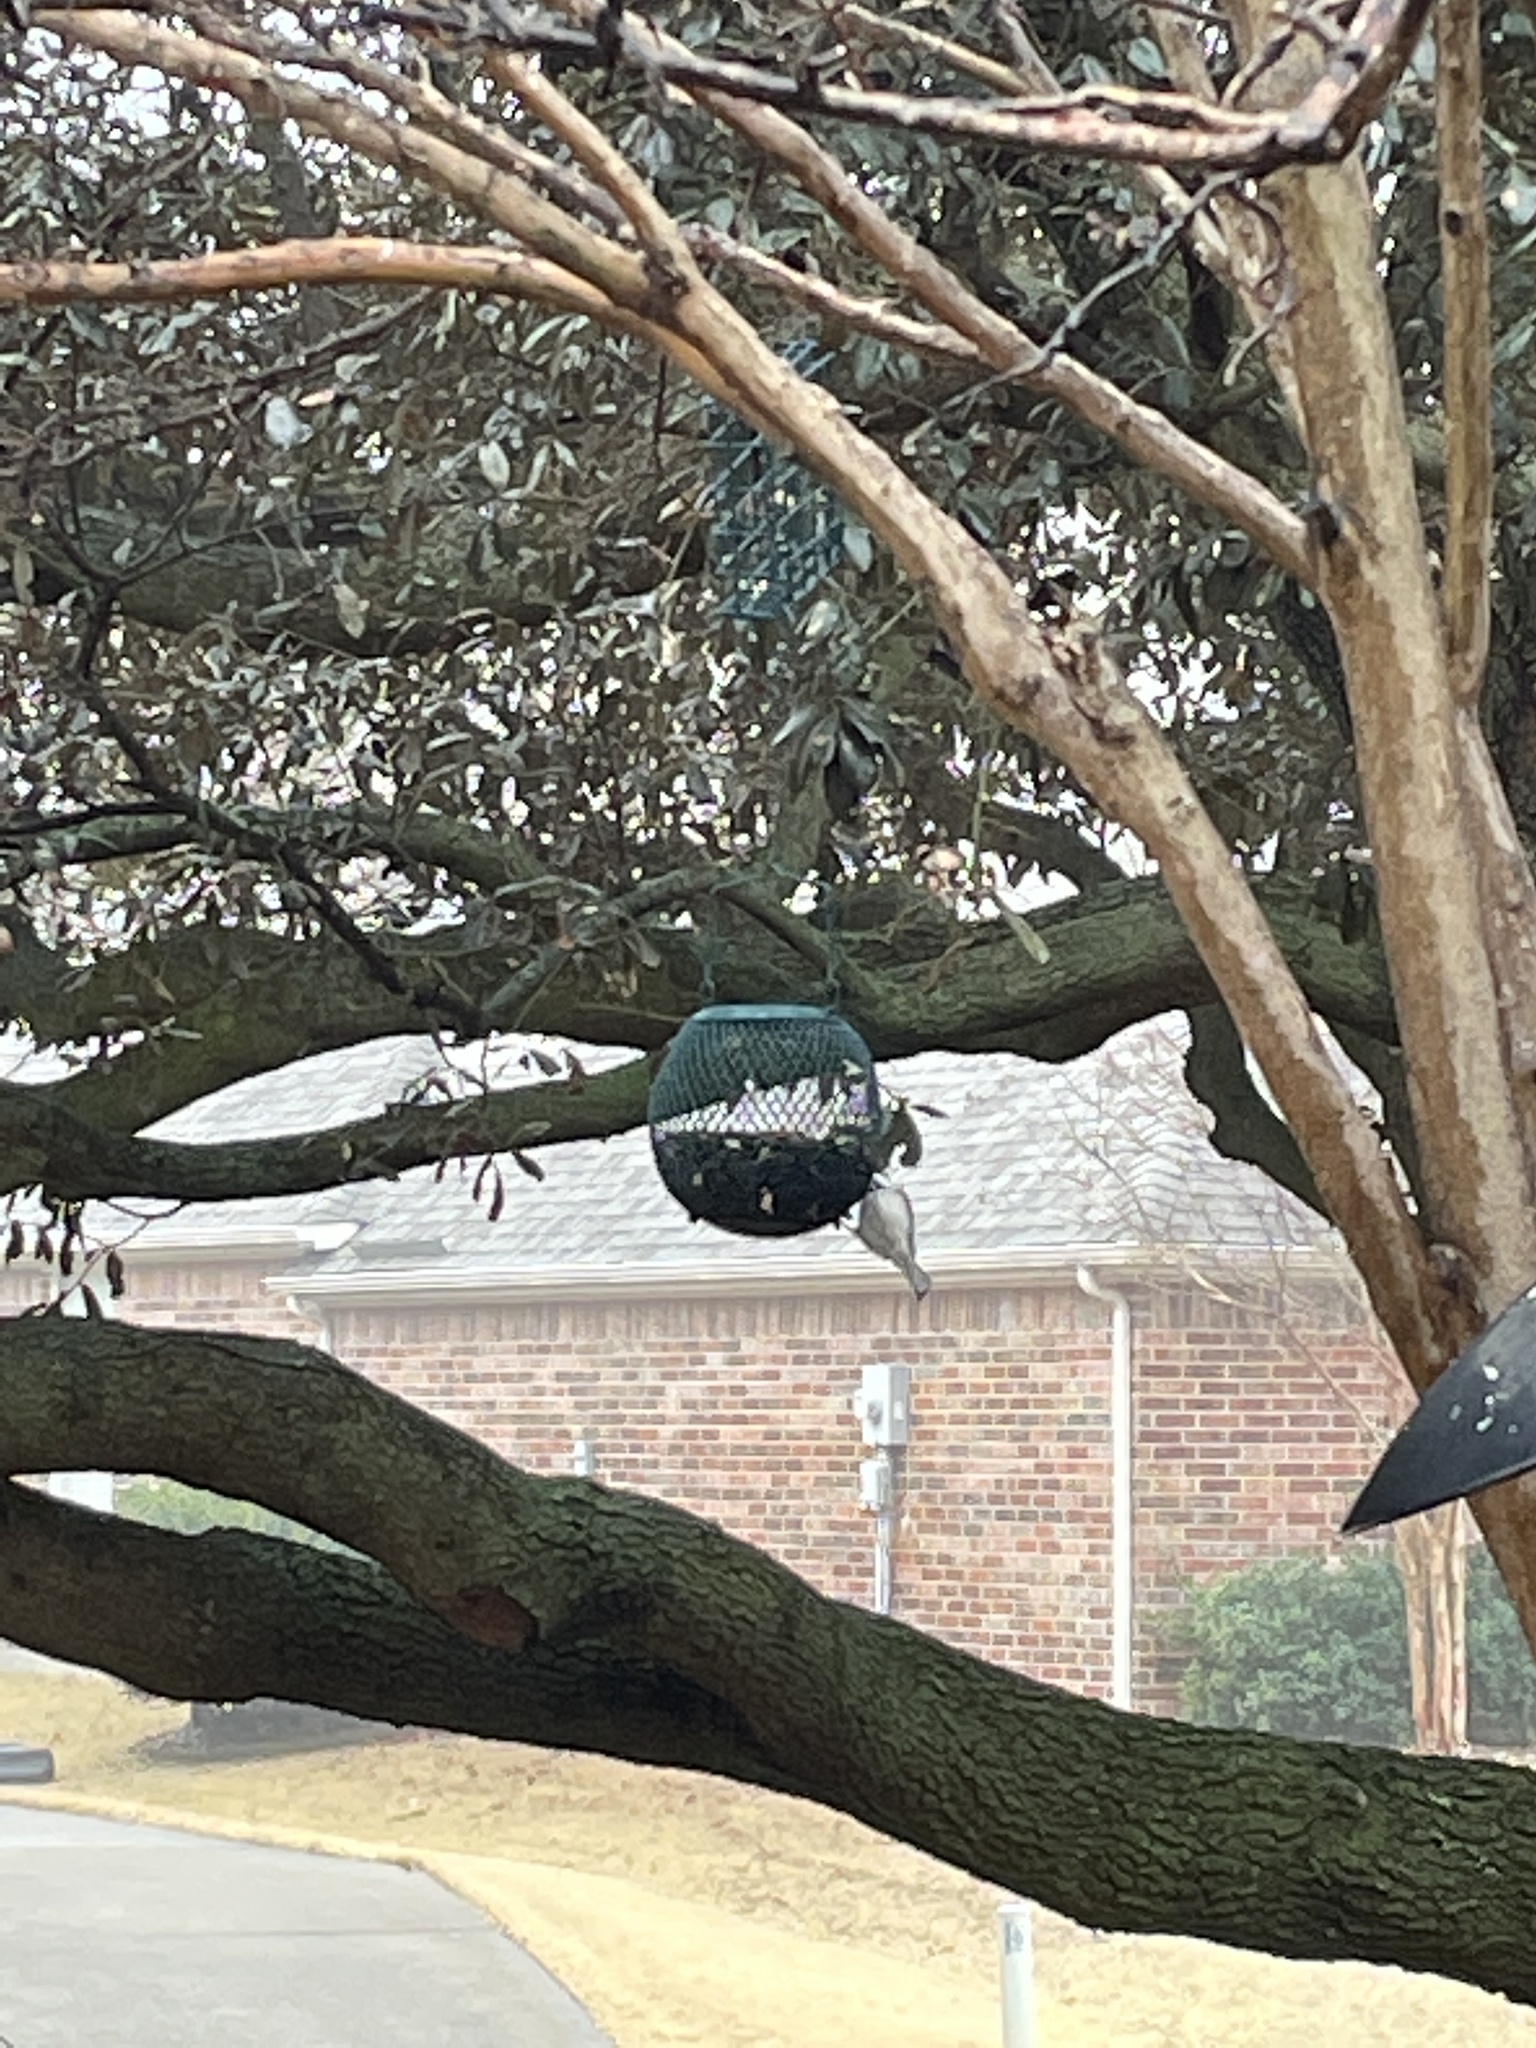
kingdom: Animalia
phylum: Chordata
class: Aves
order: Passeriformes
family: Paridae
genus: Poecile
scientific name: Poecile carolinensis
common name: Carolina chickadee
